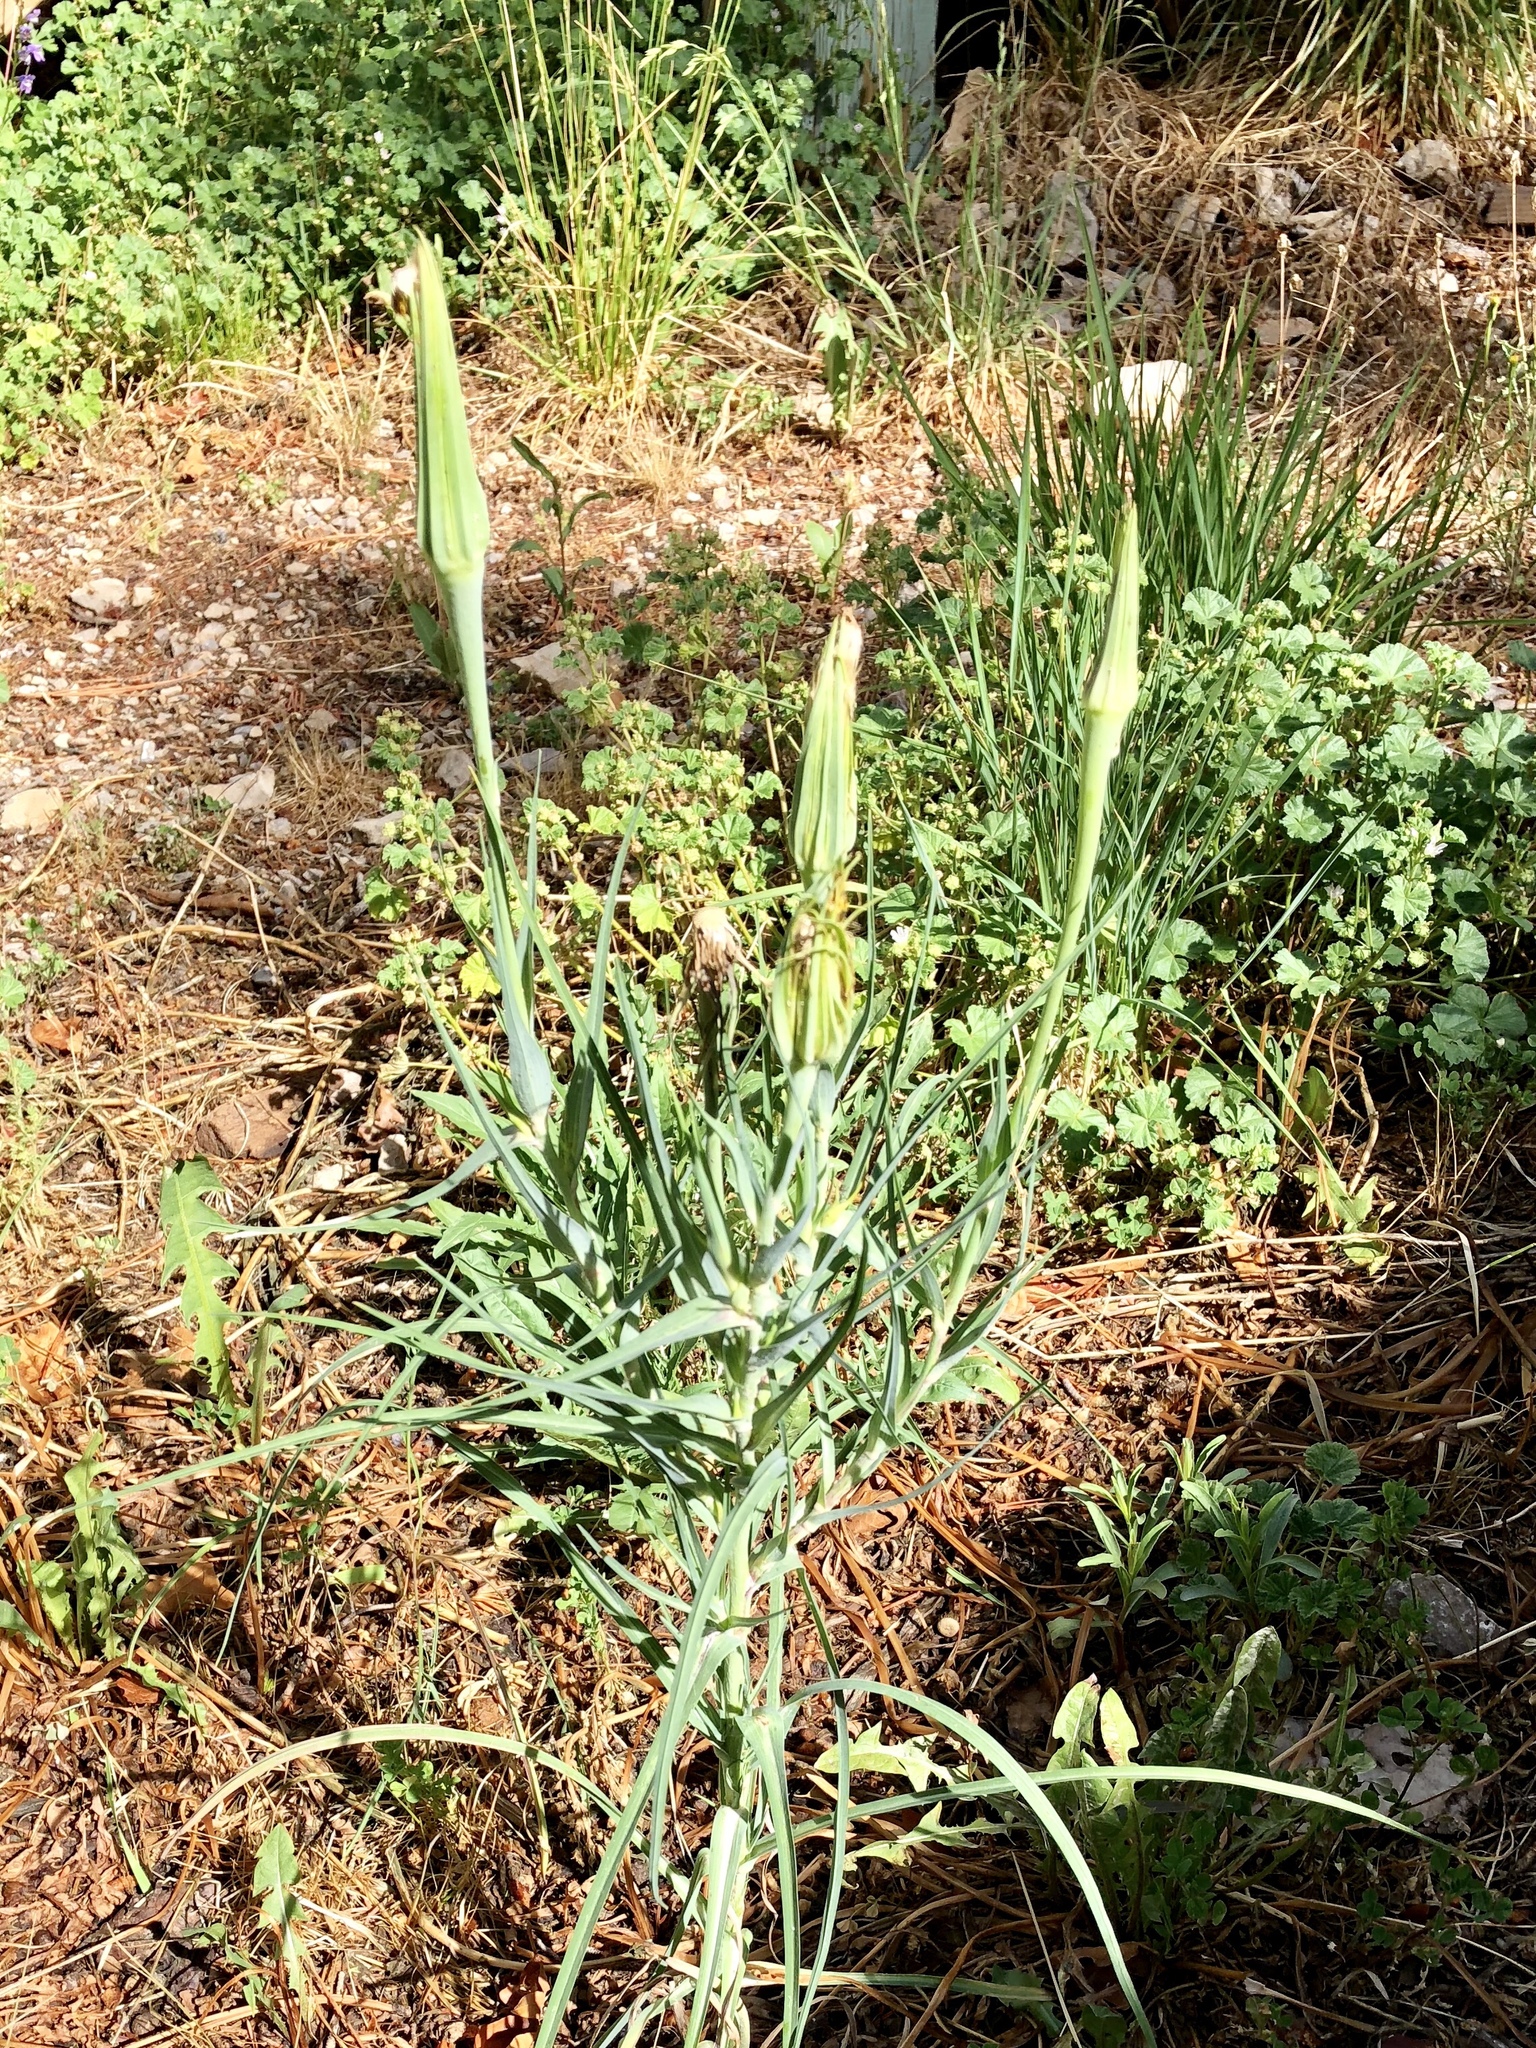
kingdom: Plantae
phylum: Tracheophyta
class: Magnoliopsida
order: Asterales
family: Asteraceae
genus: Tragopogon
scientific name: Tragopogon dubius
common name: Yellow salsify
